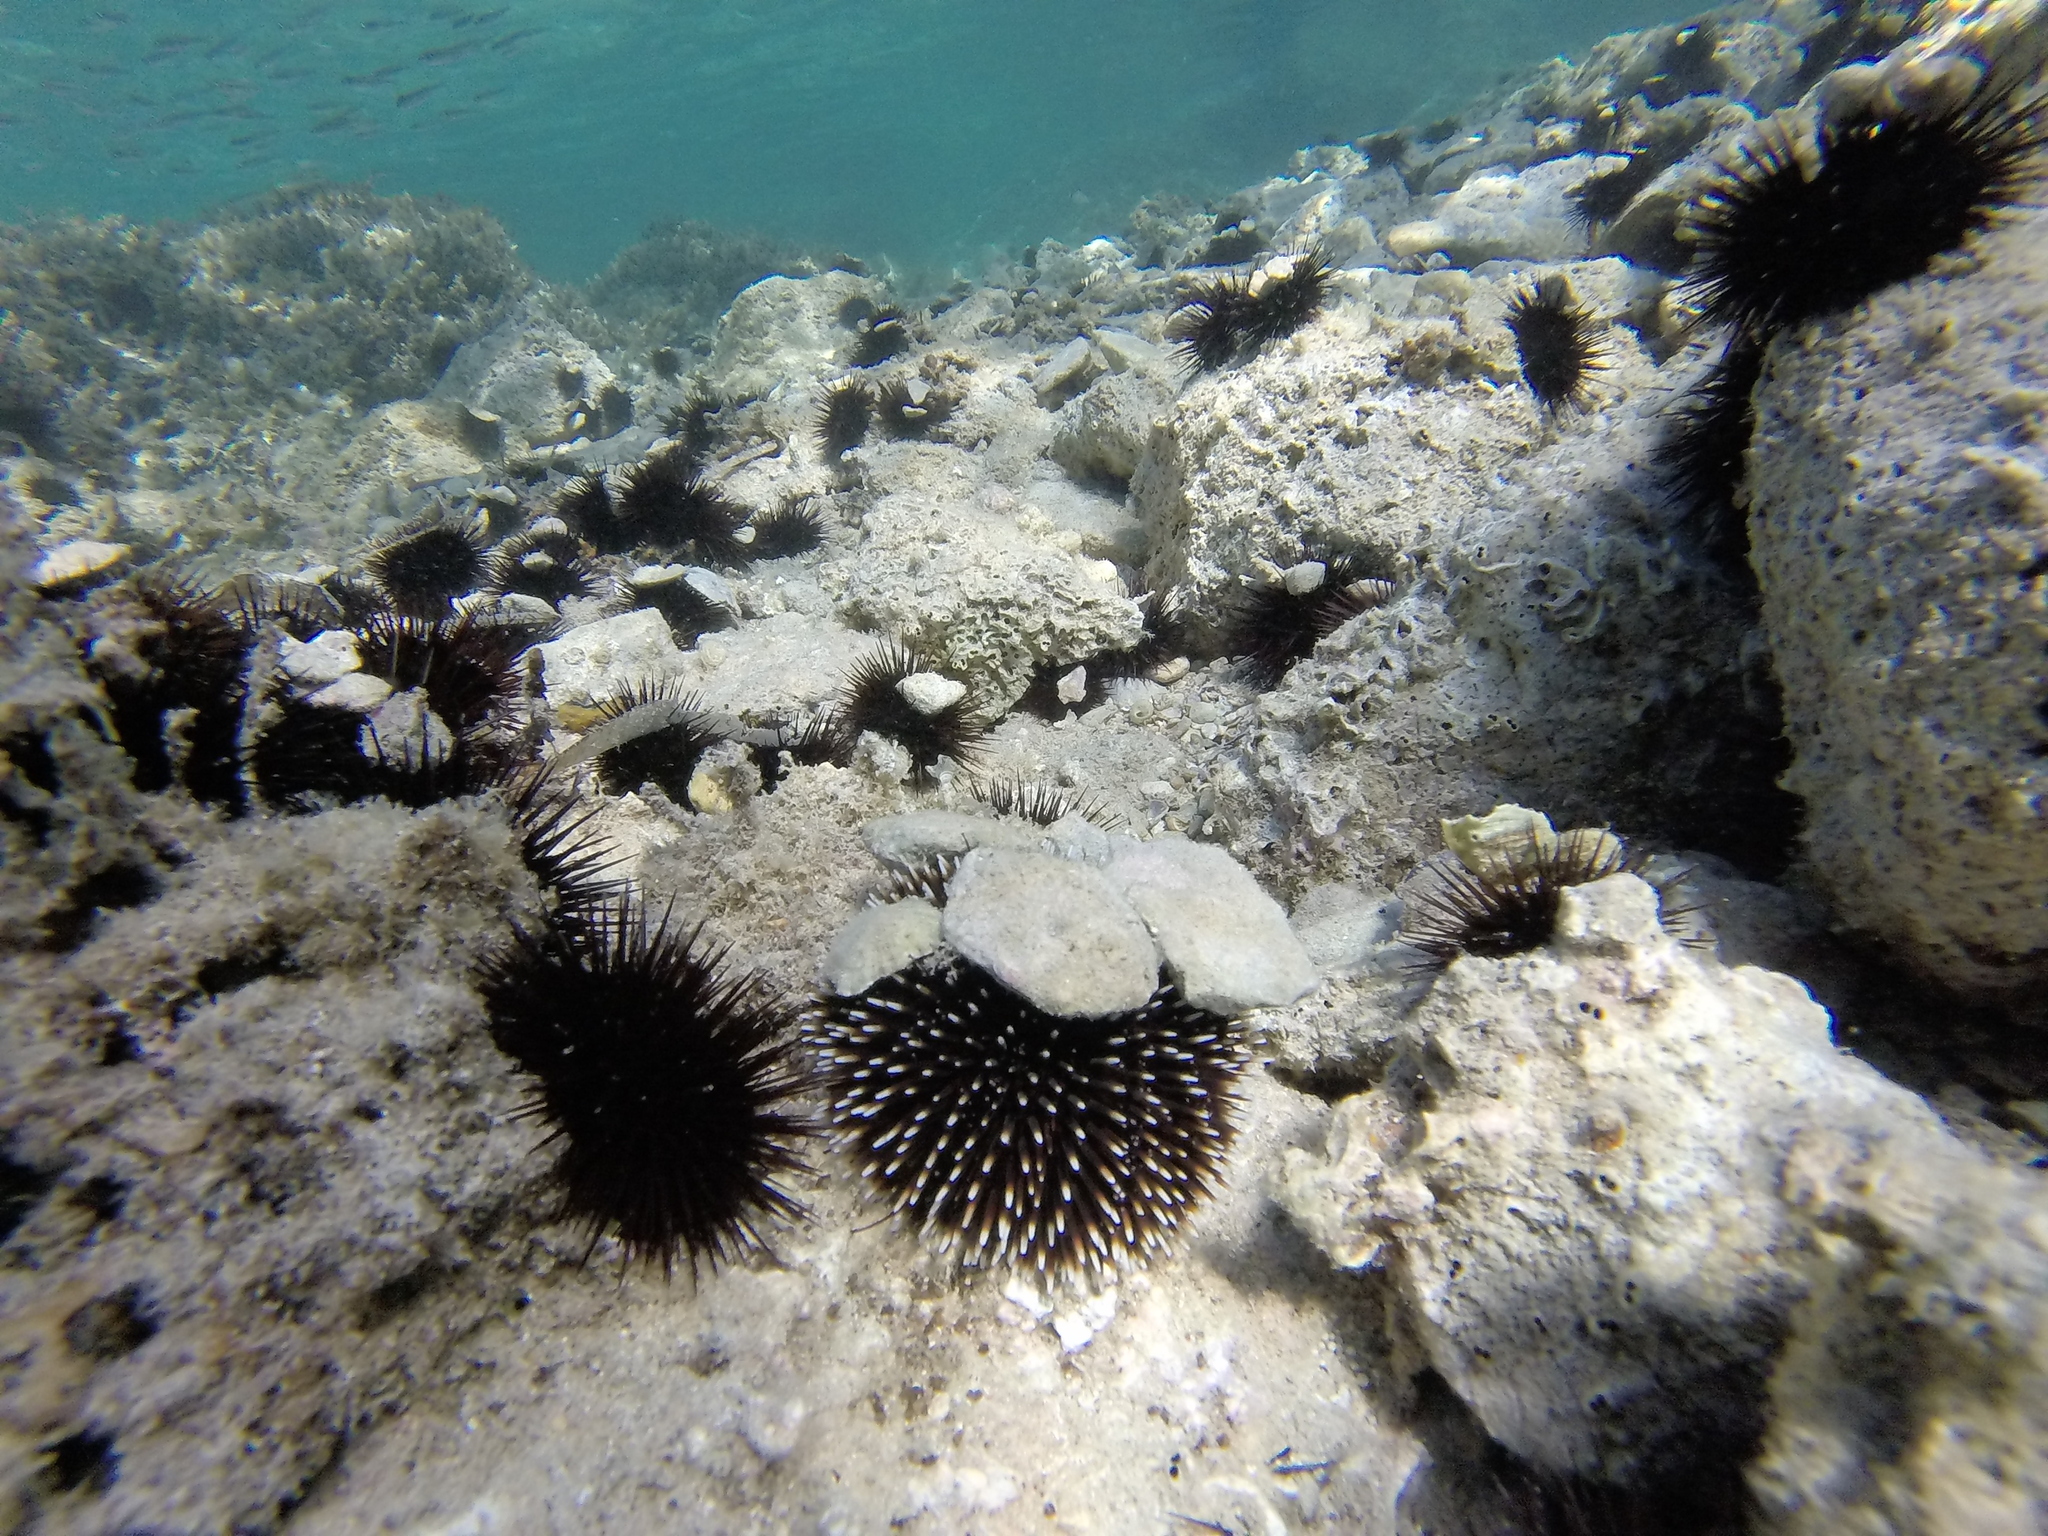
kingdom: Animalia
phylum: Echinodermata
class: Echinoidea
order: Camarodonta
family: Toxopneustidae
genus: Sphaerechinus
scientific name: Sphaerechinus granularis
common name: Violet sea urchin
